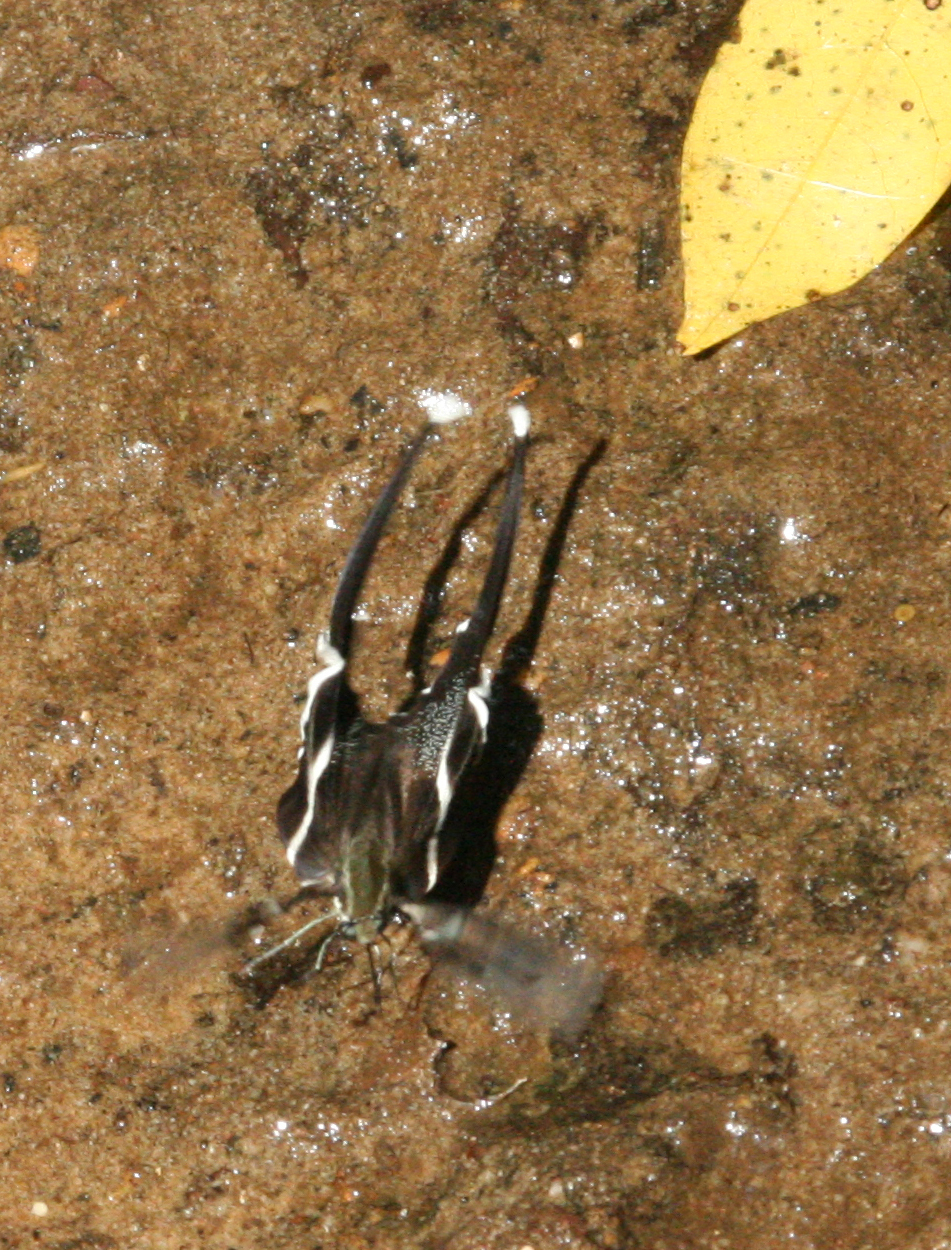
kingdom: Animalia
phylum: Arthropoda
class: Insecta
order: Lepidoptera
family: Papilionidae
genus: Lamproptera
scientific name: Lamproptera meges
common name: Green dragontail
